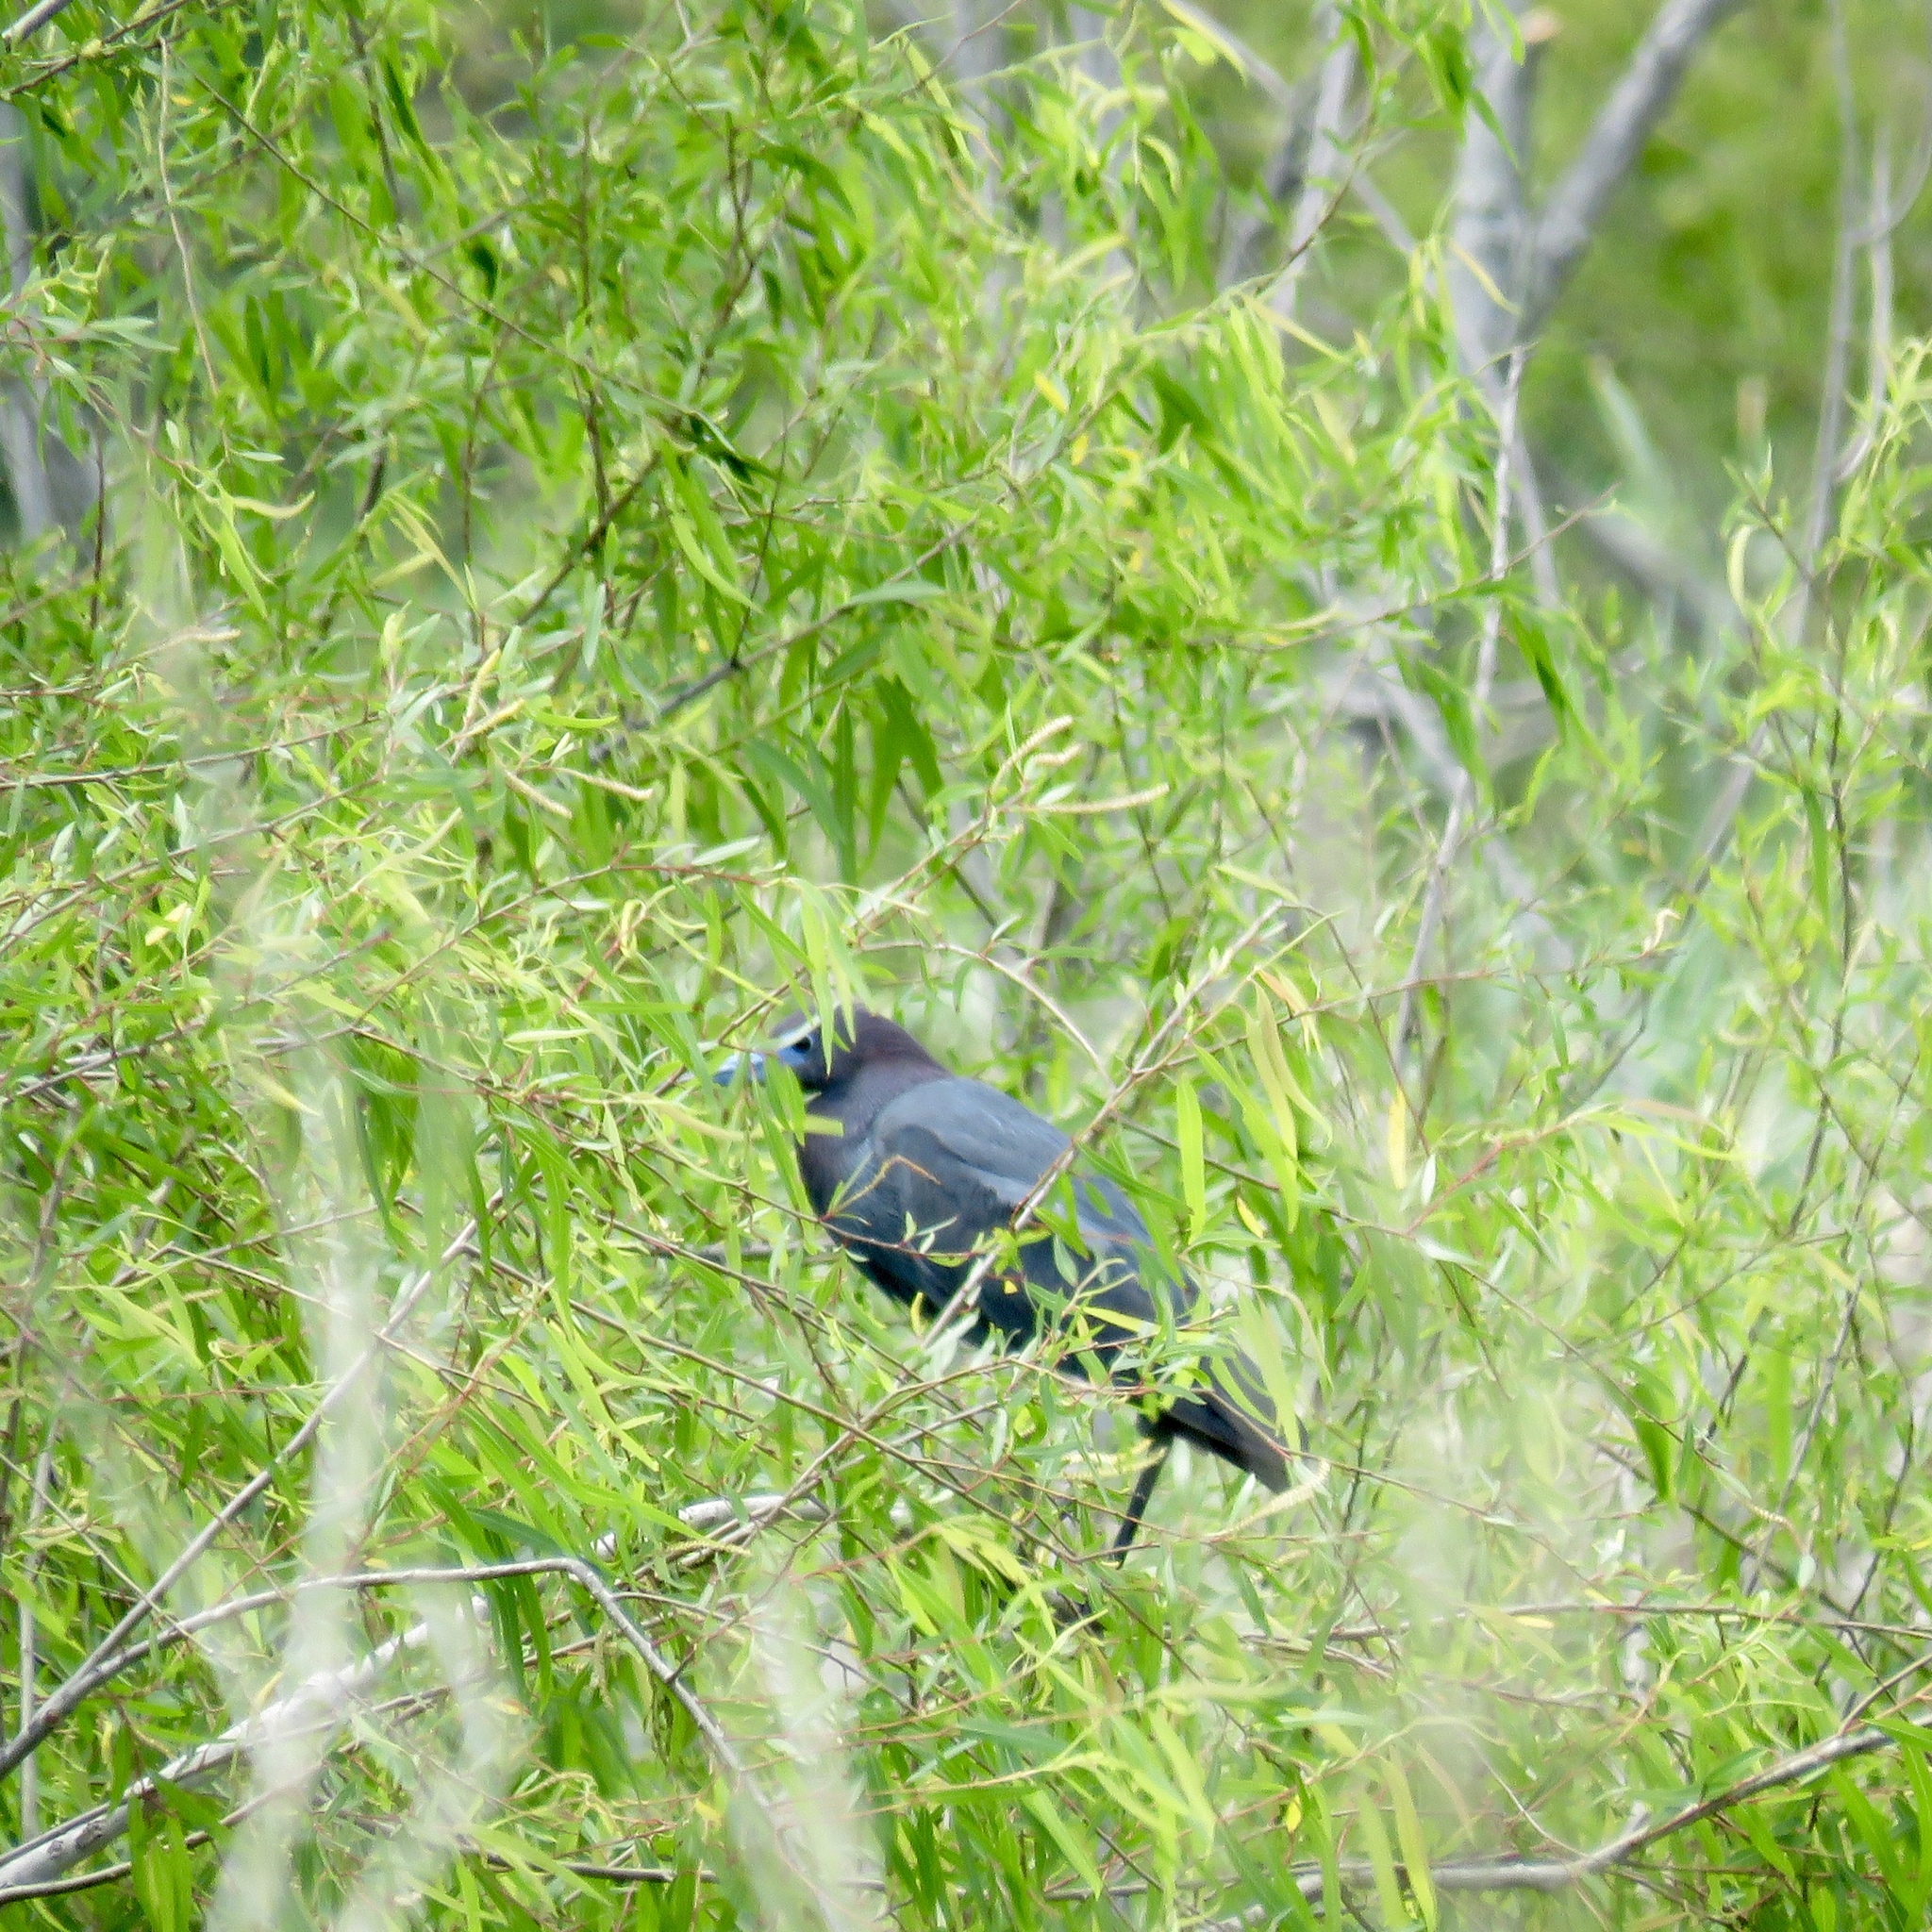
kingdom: Animalia
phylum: Chordata
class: Aves
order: Pelecaniformes
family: Ardeidae
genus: Egretta
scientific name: Egretta caerulea
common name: Little blue heron
